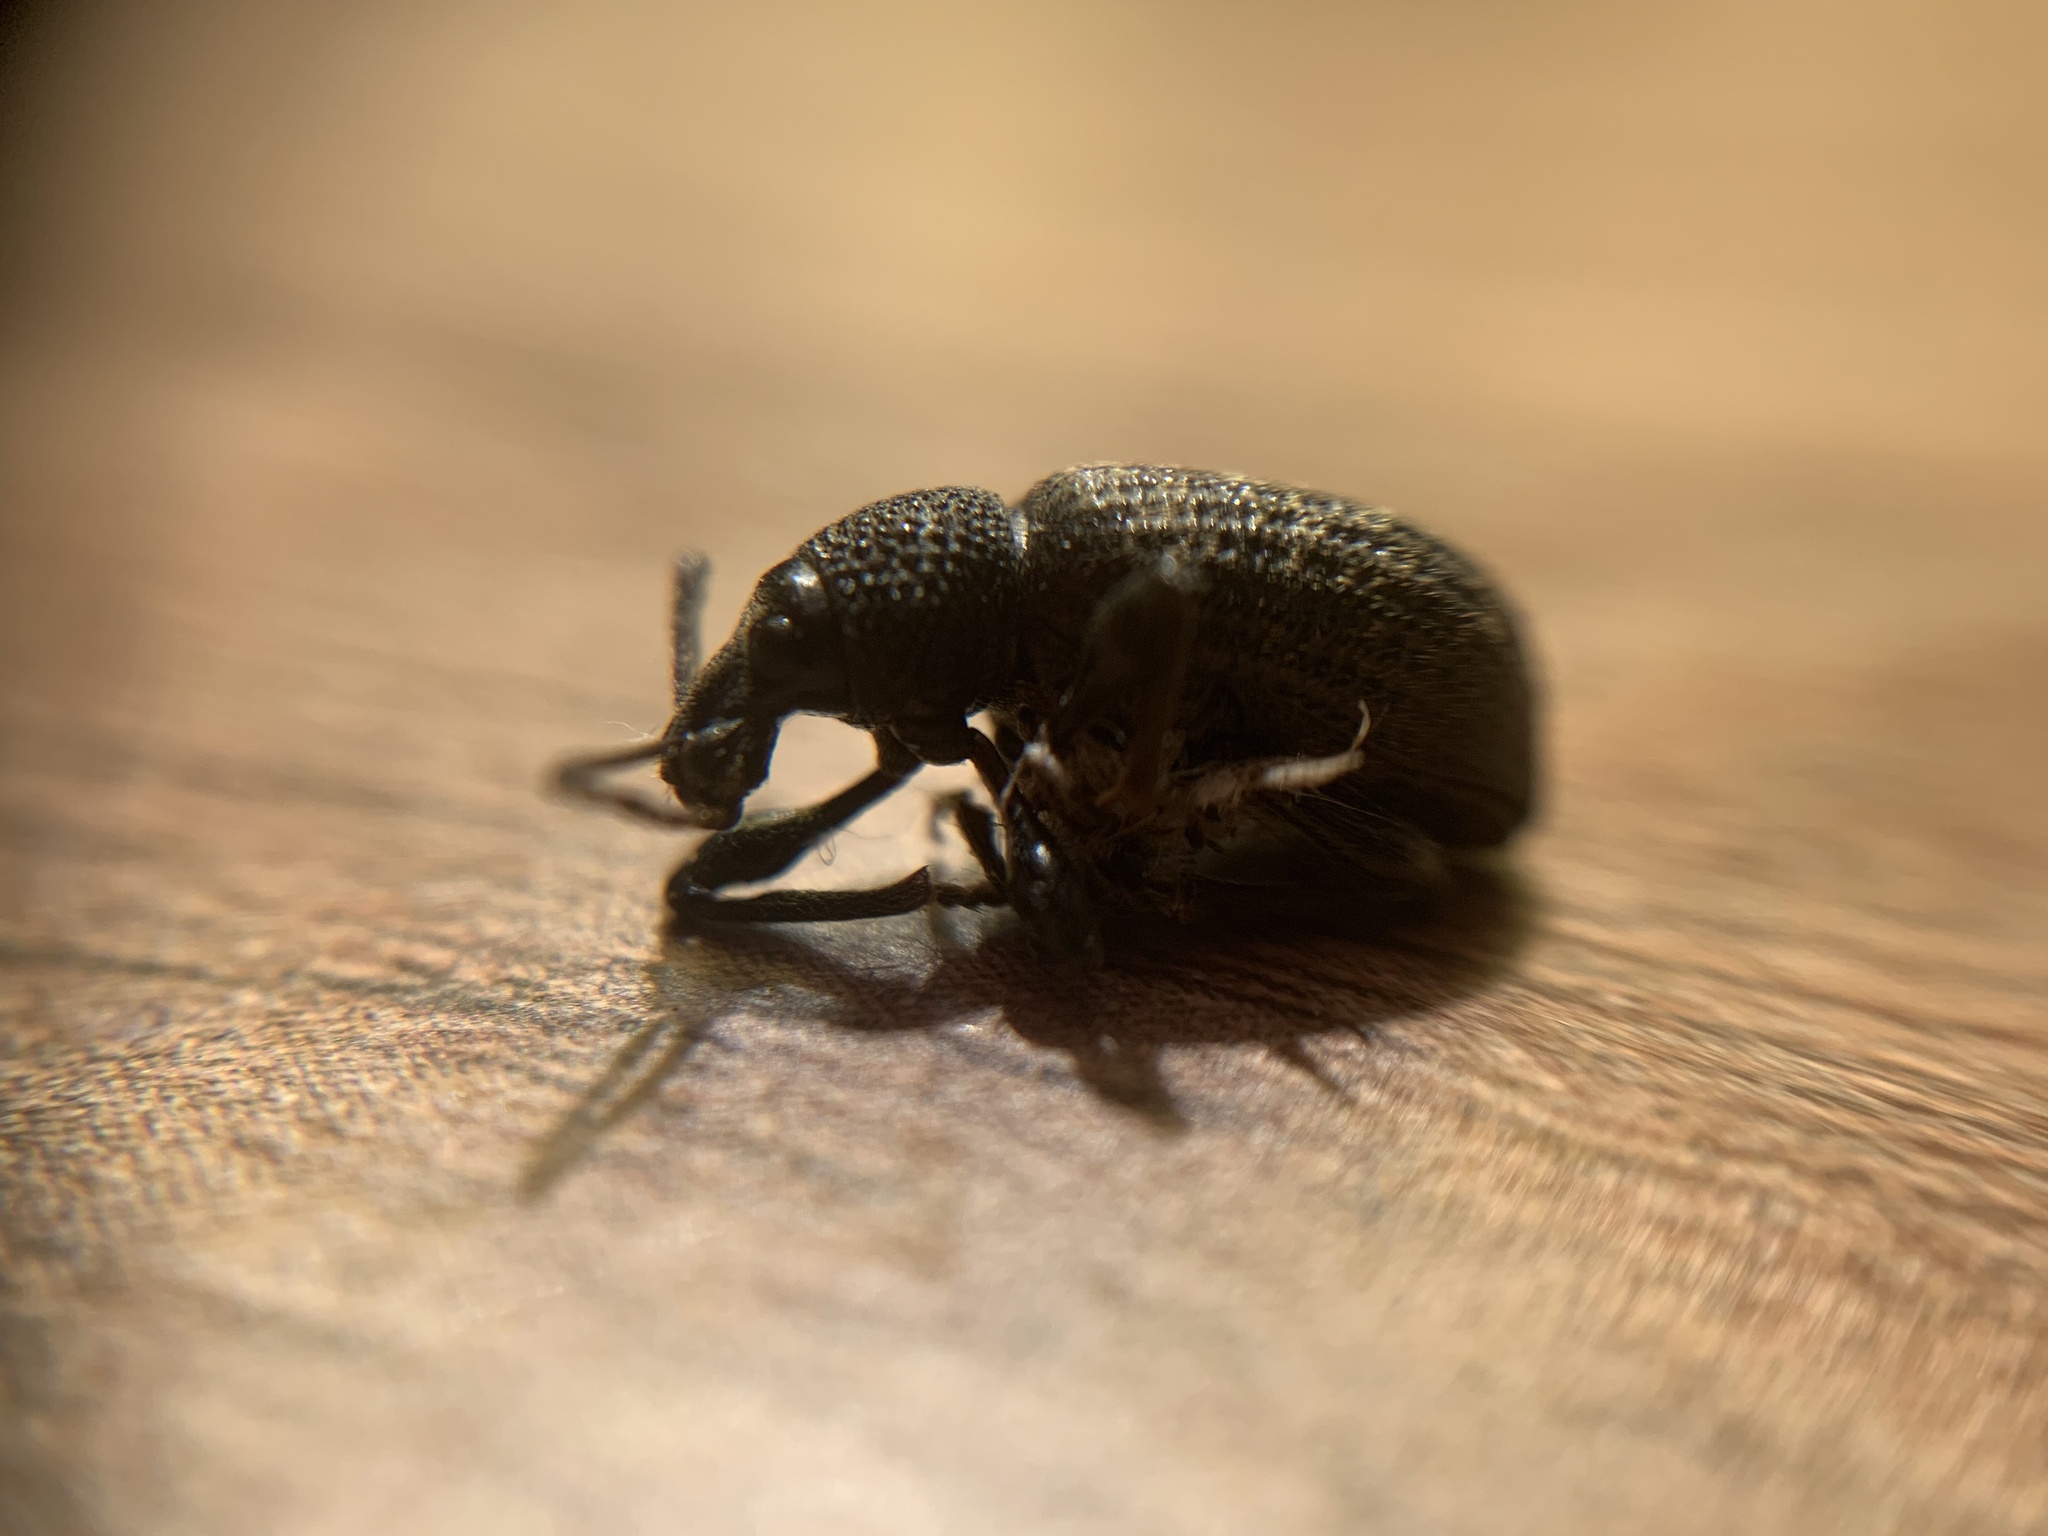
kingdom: Animalia
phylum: Arthropoda
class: Insecta
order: Coleoptera
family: Curculionidae
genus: Otiorhynchus
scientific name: Otiorhynchus sulcatus
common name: Black vine weevil
